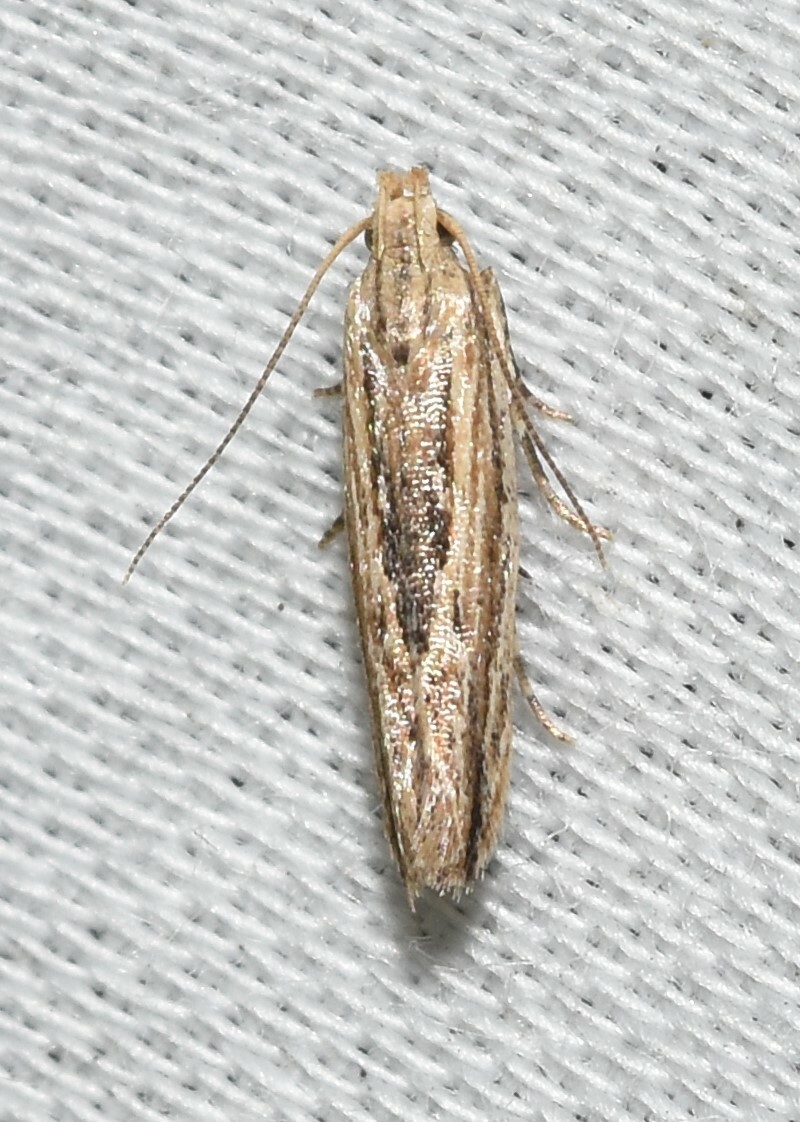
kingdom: Animalia
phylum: Arthropoda
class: Insecta
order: Lepidoptera
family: Gelechiidae
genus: Symmetrischema
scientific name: Symmetrischema striatella
